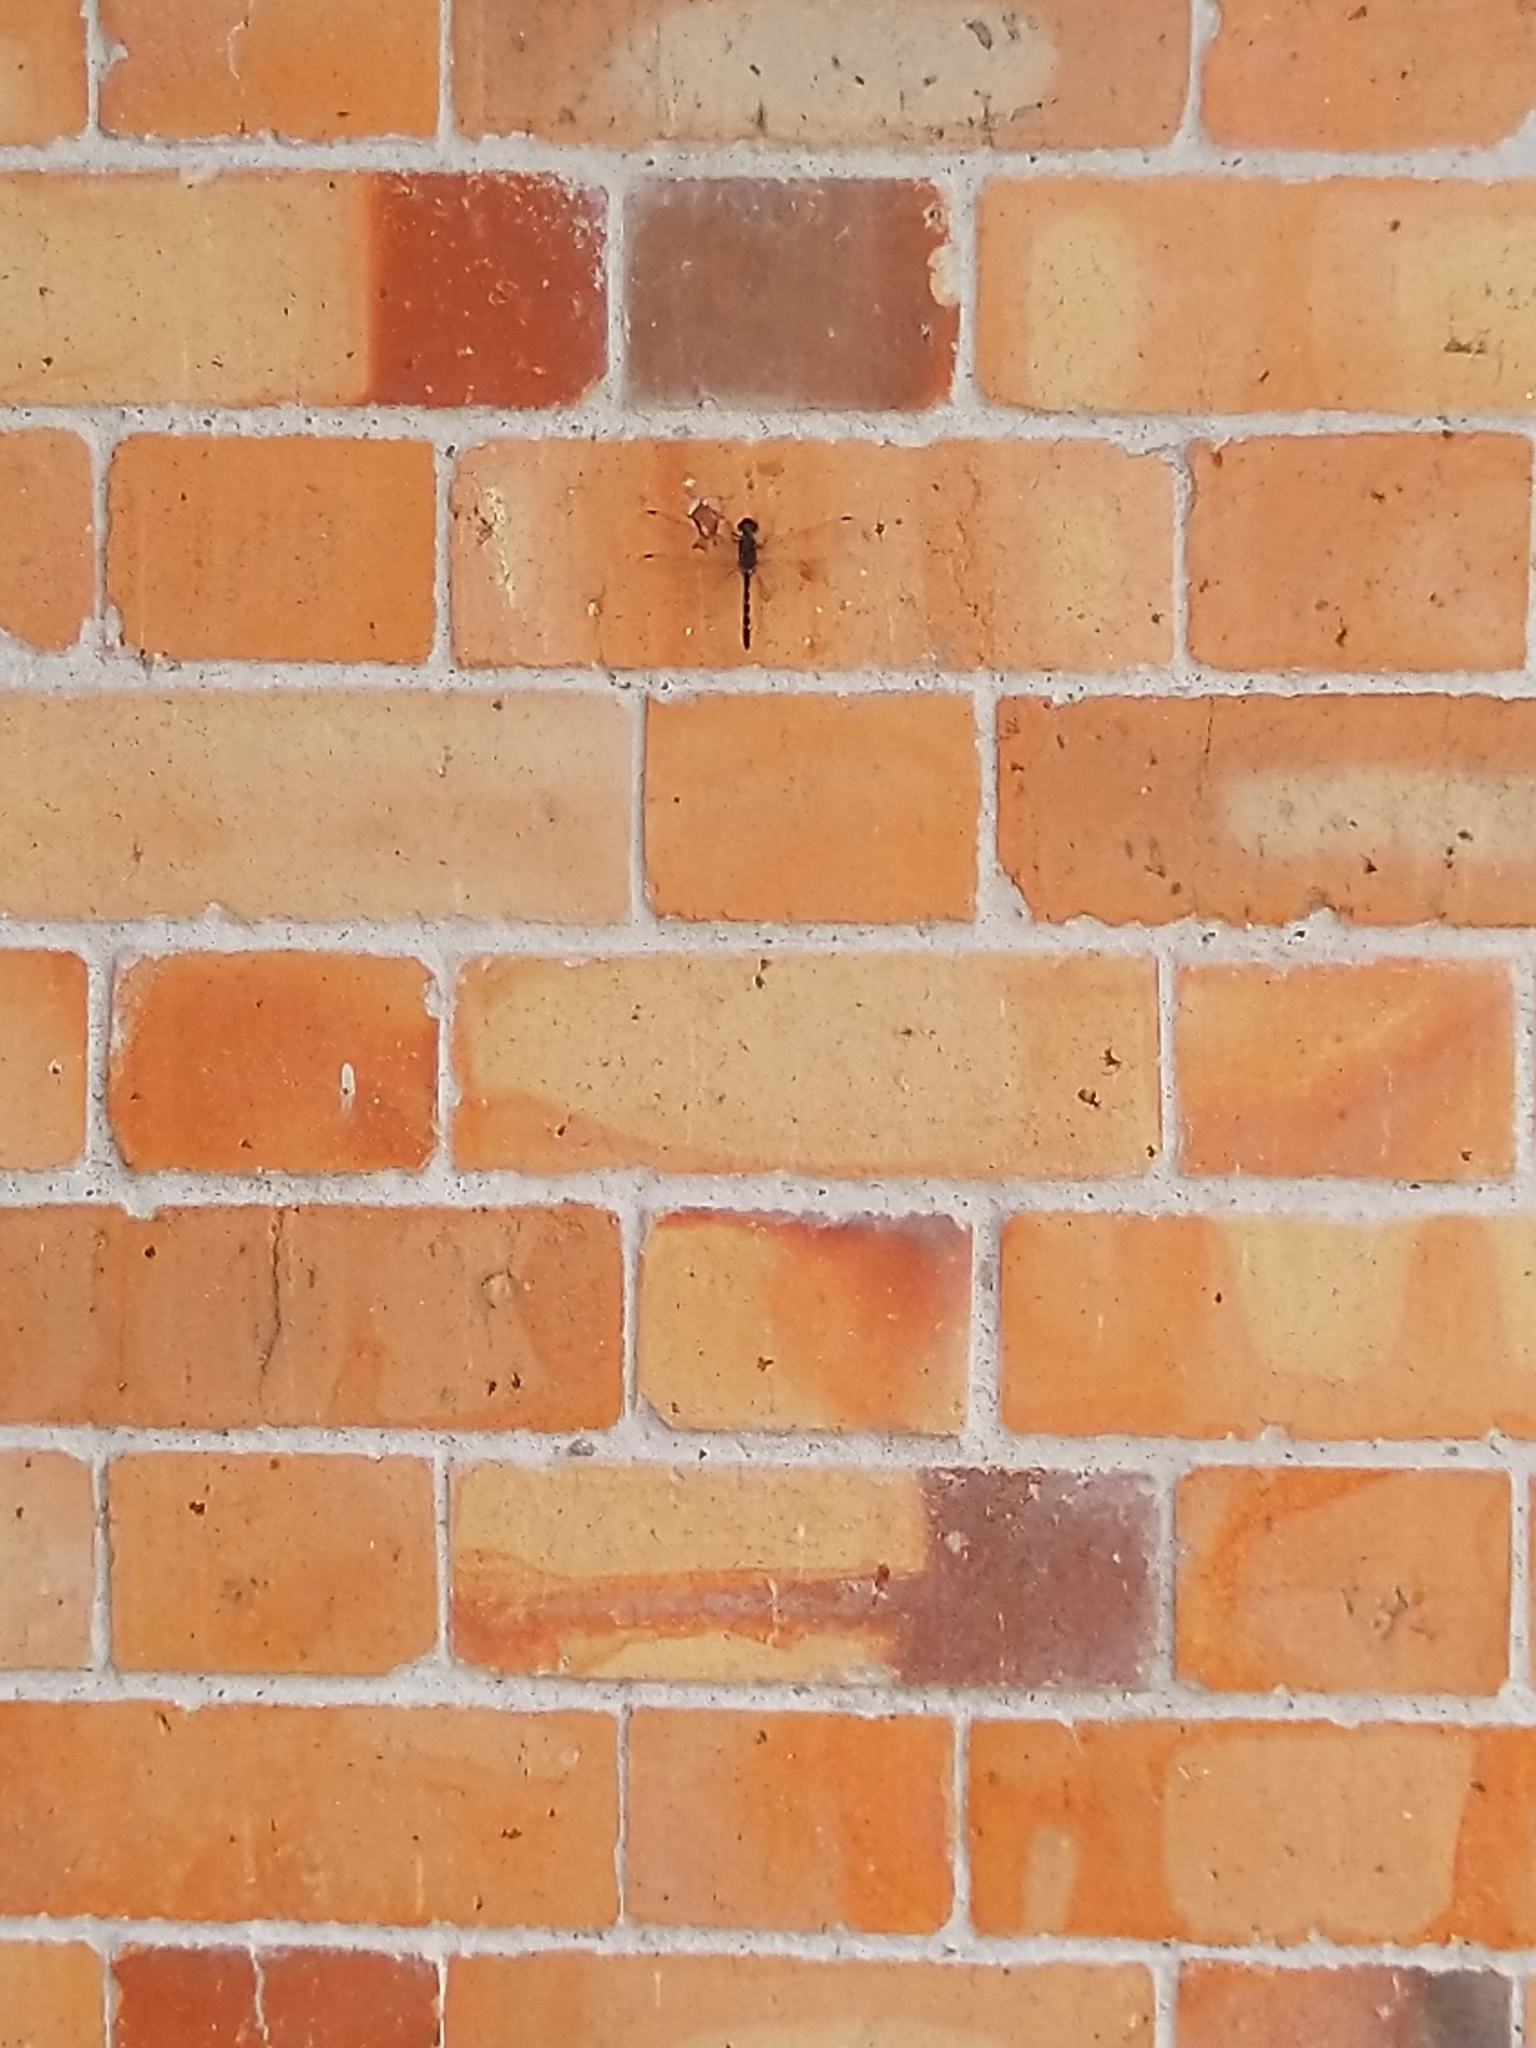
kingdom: Animalia
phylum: Arthropoda
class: Insecta
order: Odonata
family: Libellulidae
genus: Bradinopyga
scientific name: Bradinopyga geminata
